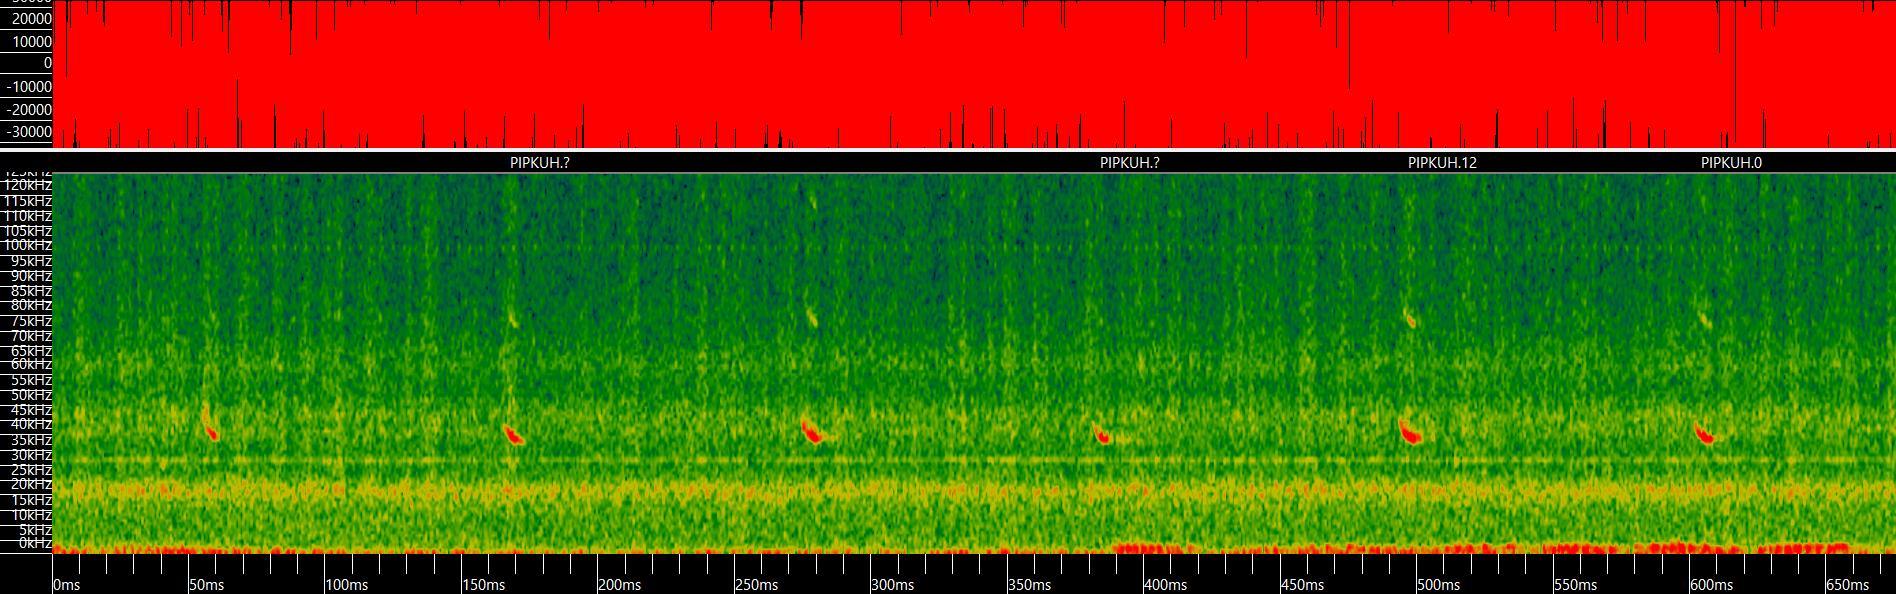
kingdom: Animalia
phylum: Chordata
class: Mammalia
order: Chiroptera
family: Vespertilionidae
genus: Pipistrellus
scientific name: Pipistrellus kuhlii
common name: Kuhl's pipistrelle
